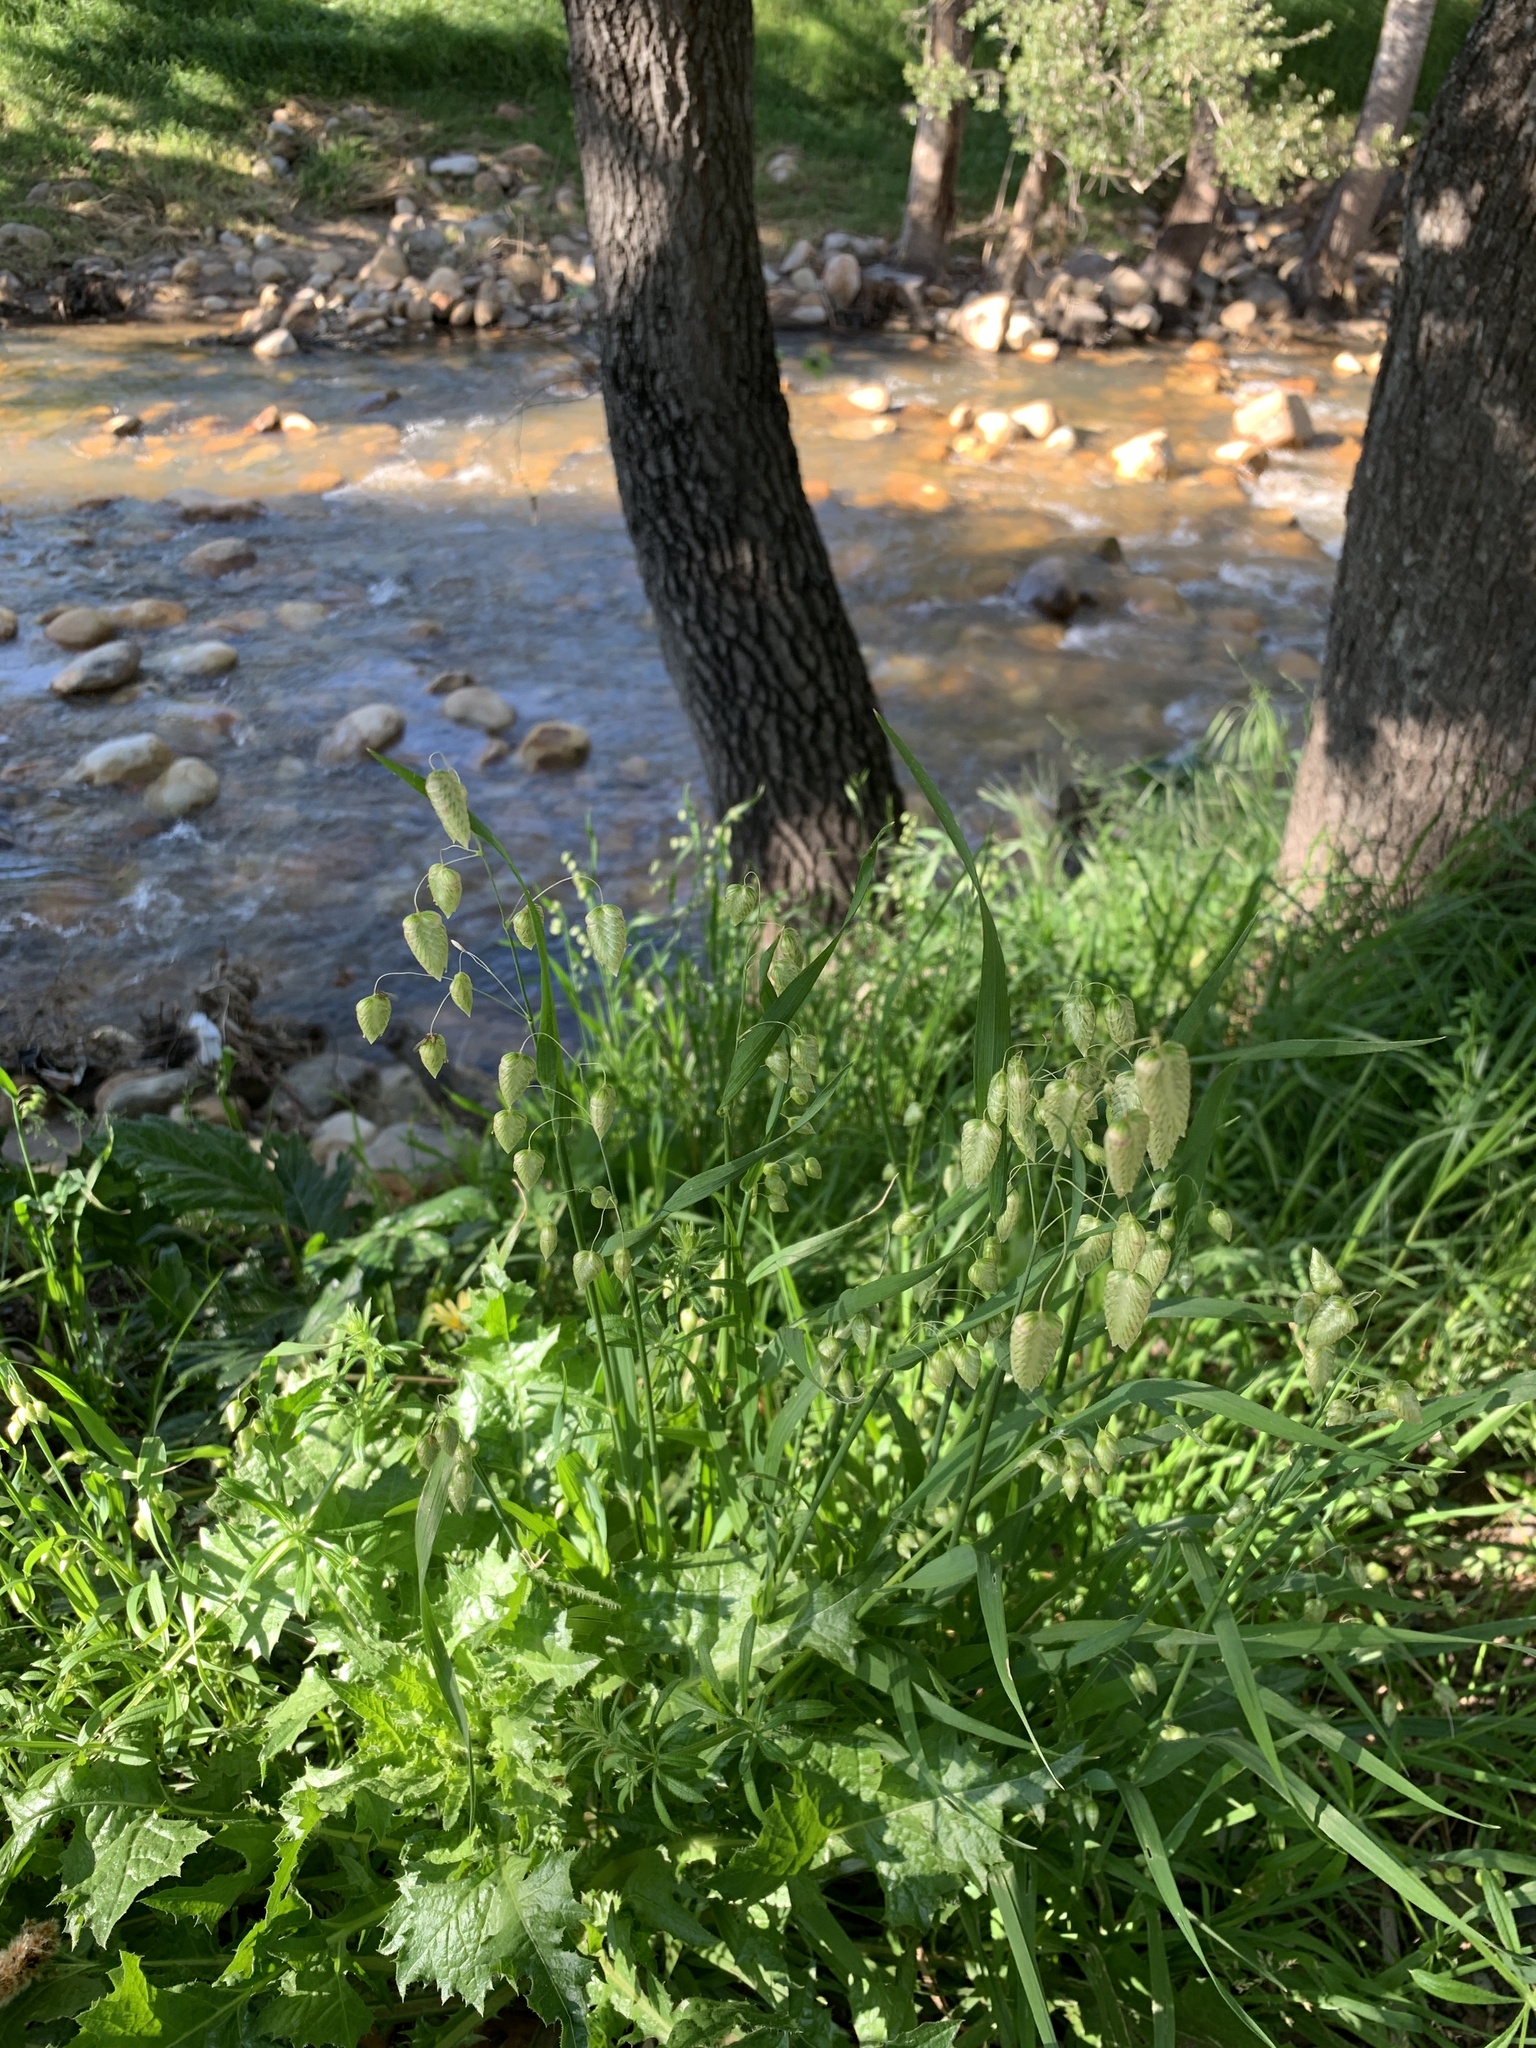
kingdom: Plantae
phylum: Tracheophyta
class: Liliopsida
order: Poales
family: Poaceae
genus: Briza
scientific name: Briza maxima
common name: Big quakinggrass
